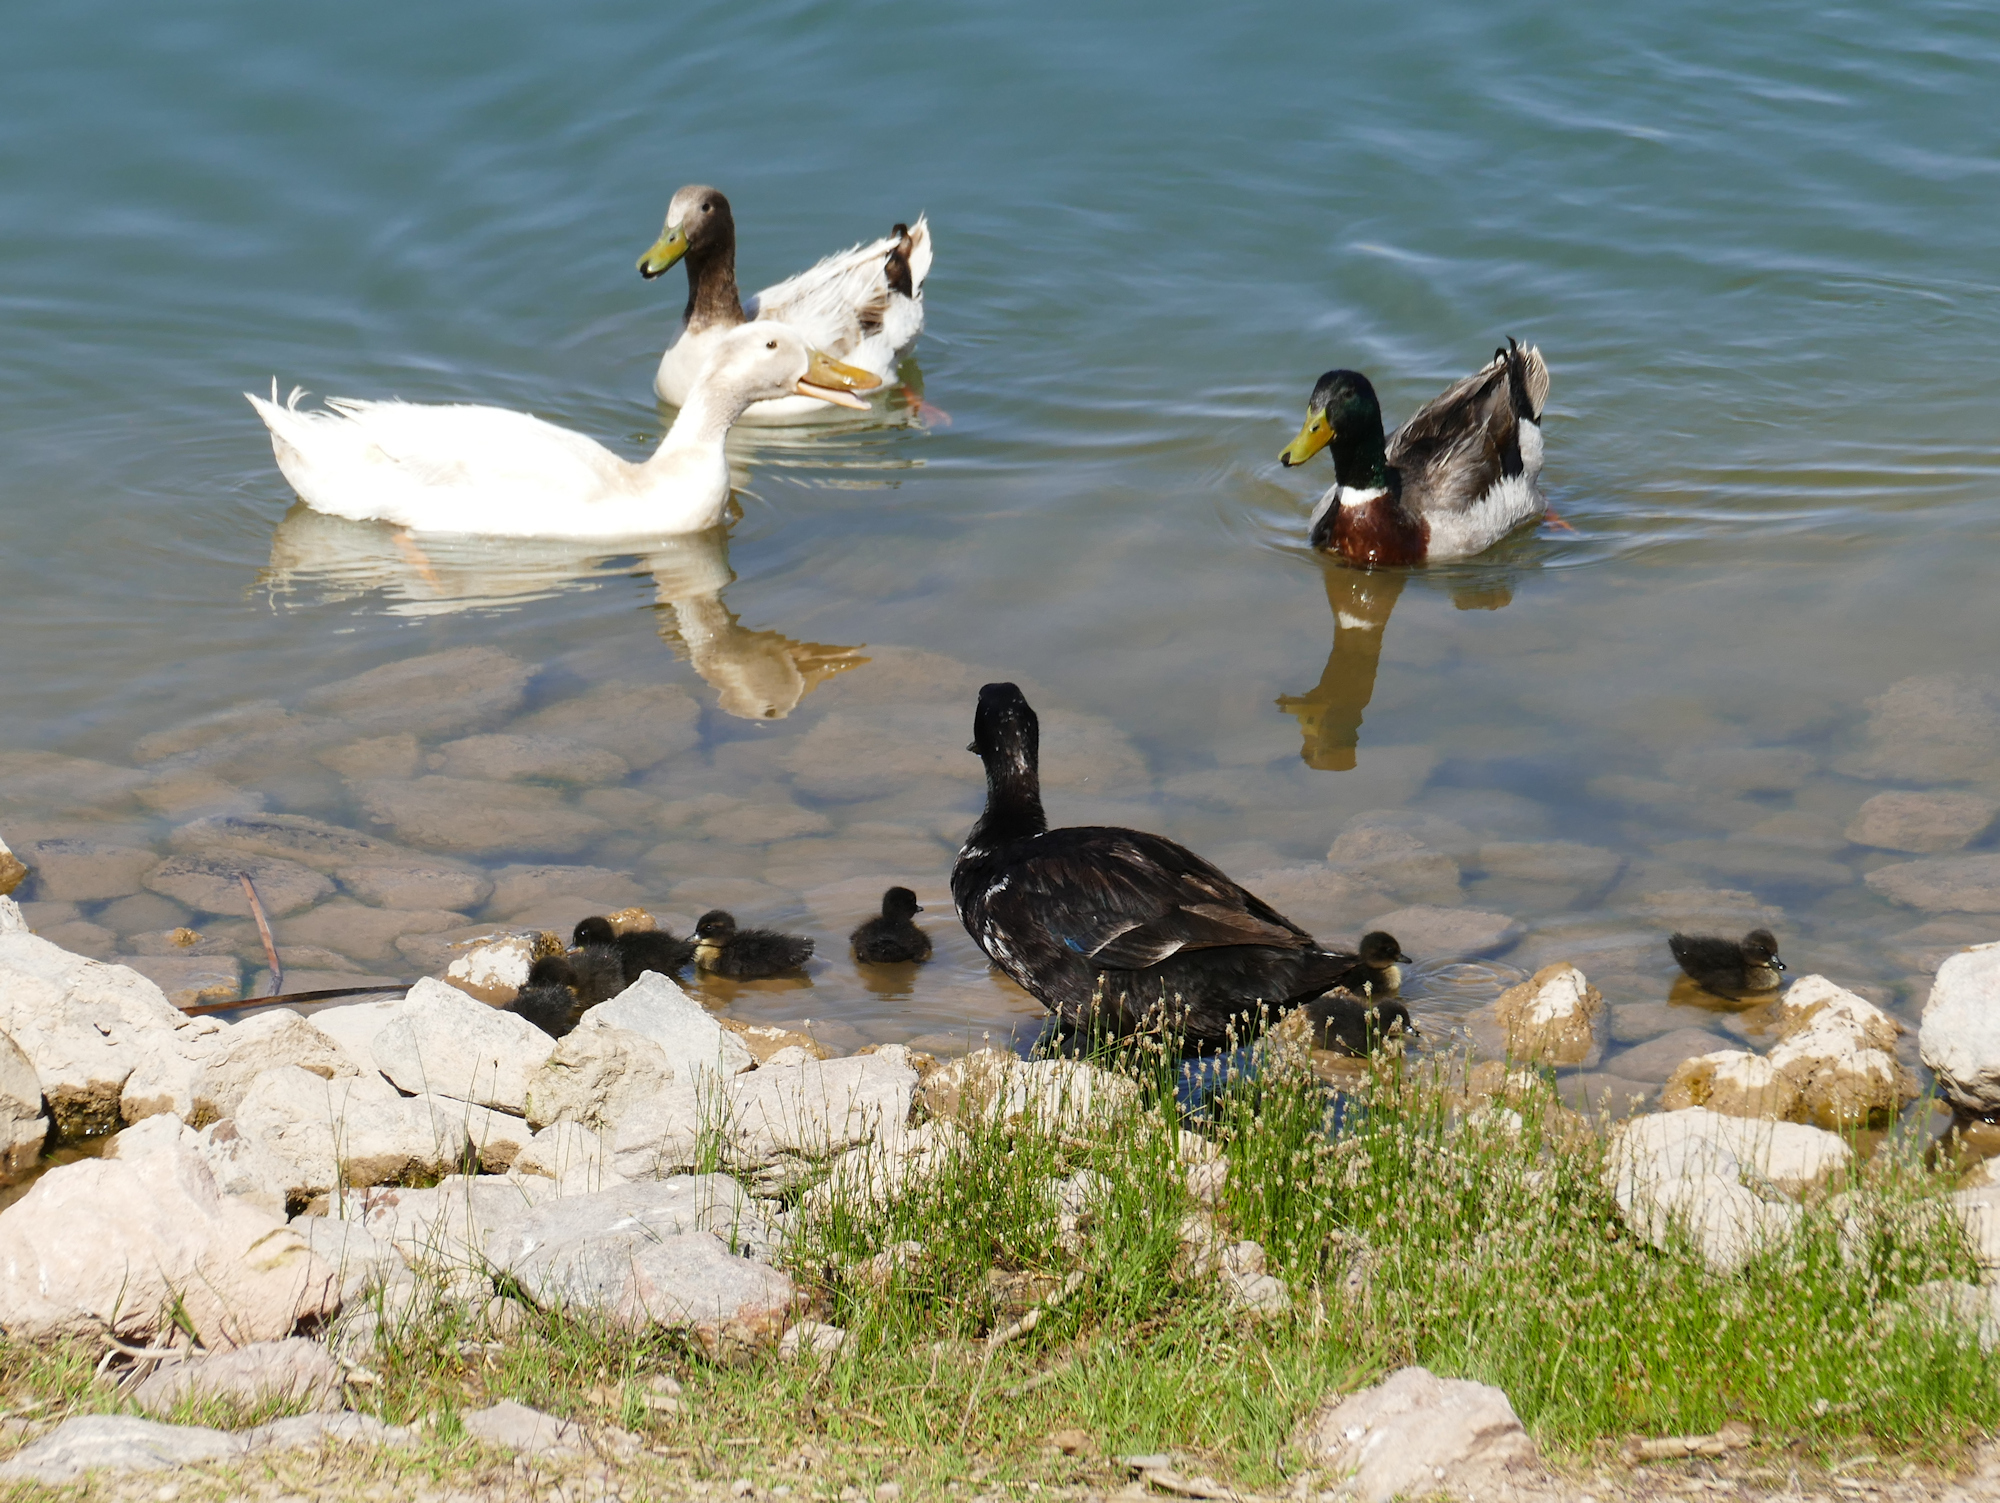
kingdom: Animalia
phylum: Chordata
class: Aves
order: Anseriformes
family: Anatidae
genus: Anas
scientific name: Anas platyrhynchos
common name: Mallard
